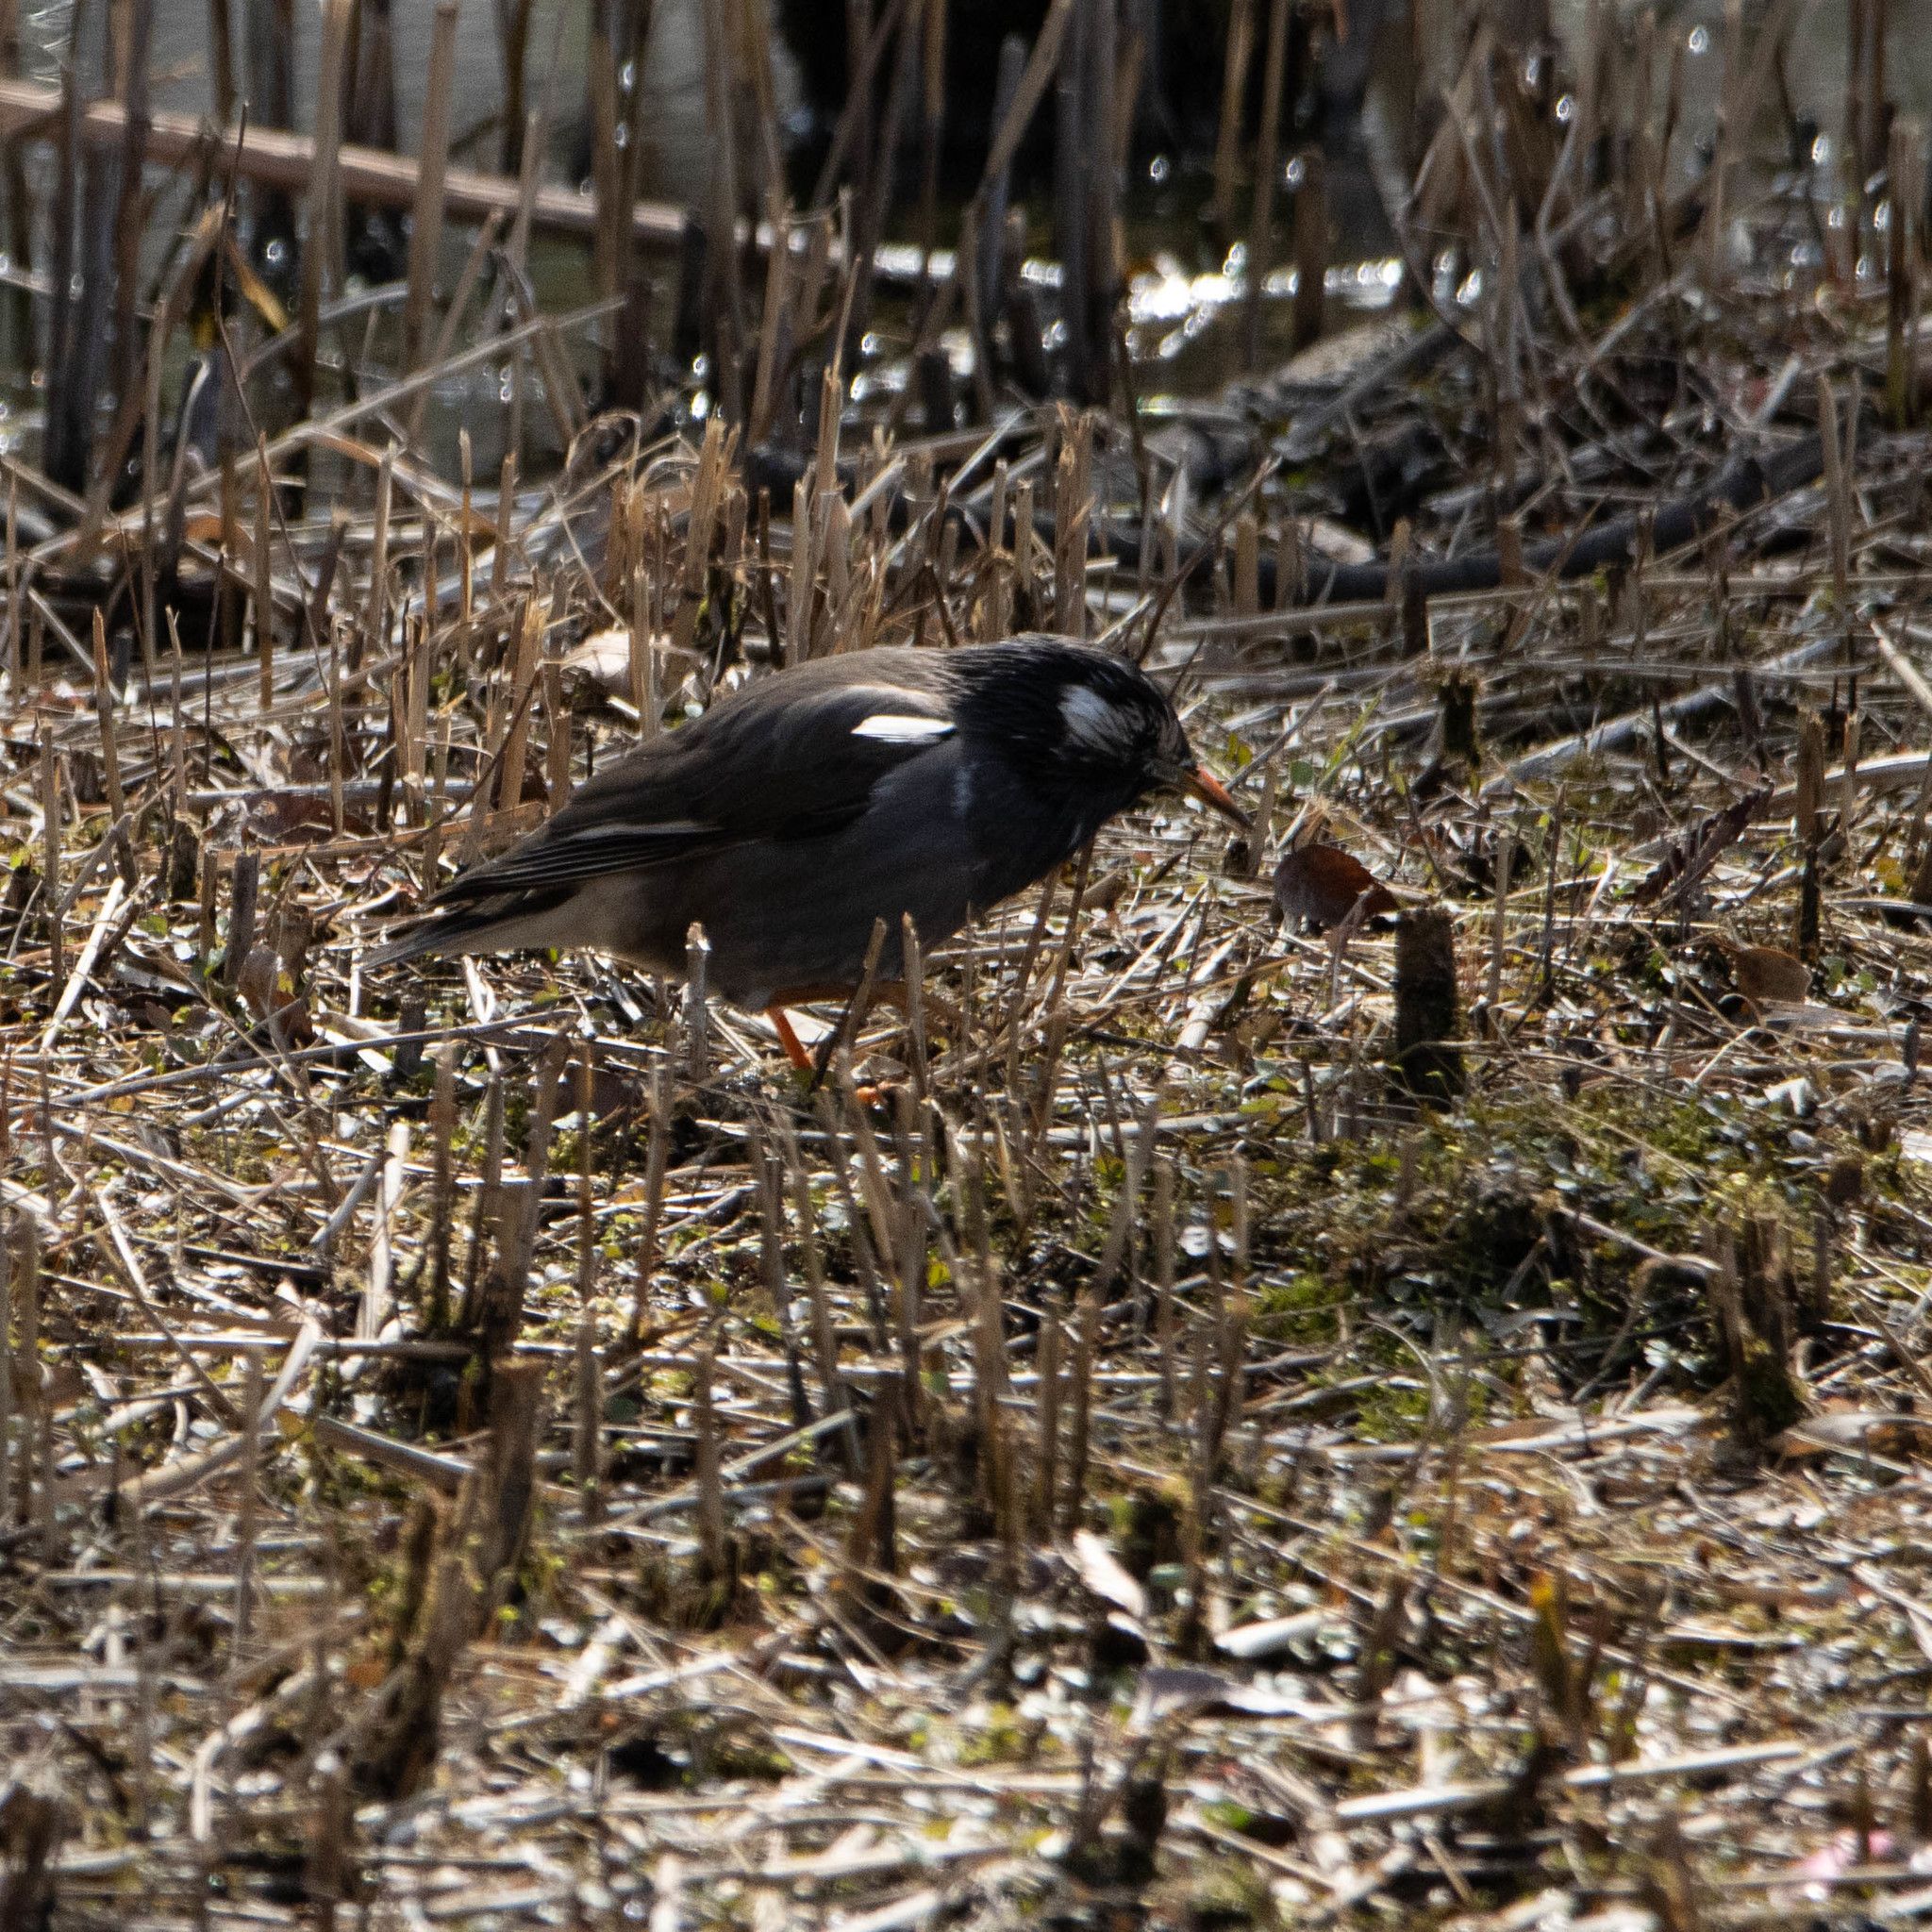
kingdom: Animalia
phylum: Chordata
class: Aves
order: Passeriformes
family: Sturnidae
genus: Spodiopsar
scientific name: Spodiopsar cineraceus
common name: White-cheeked starling
